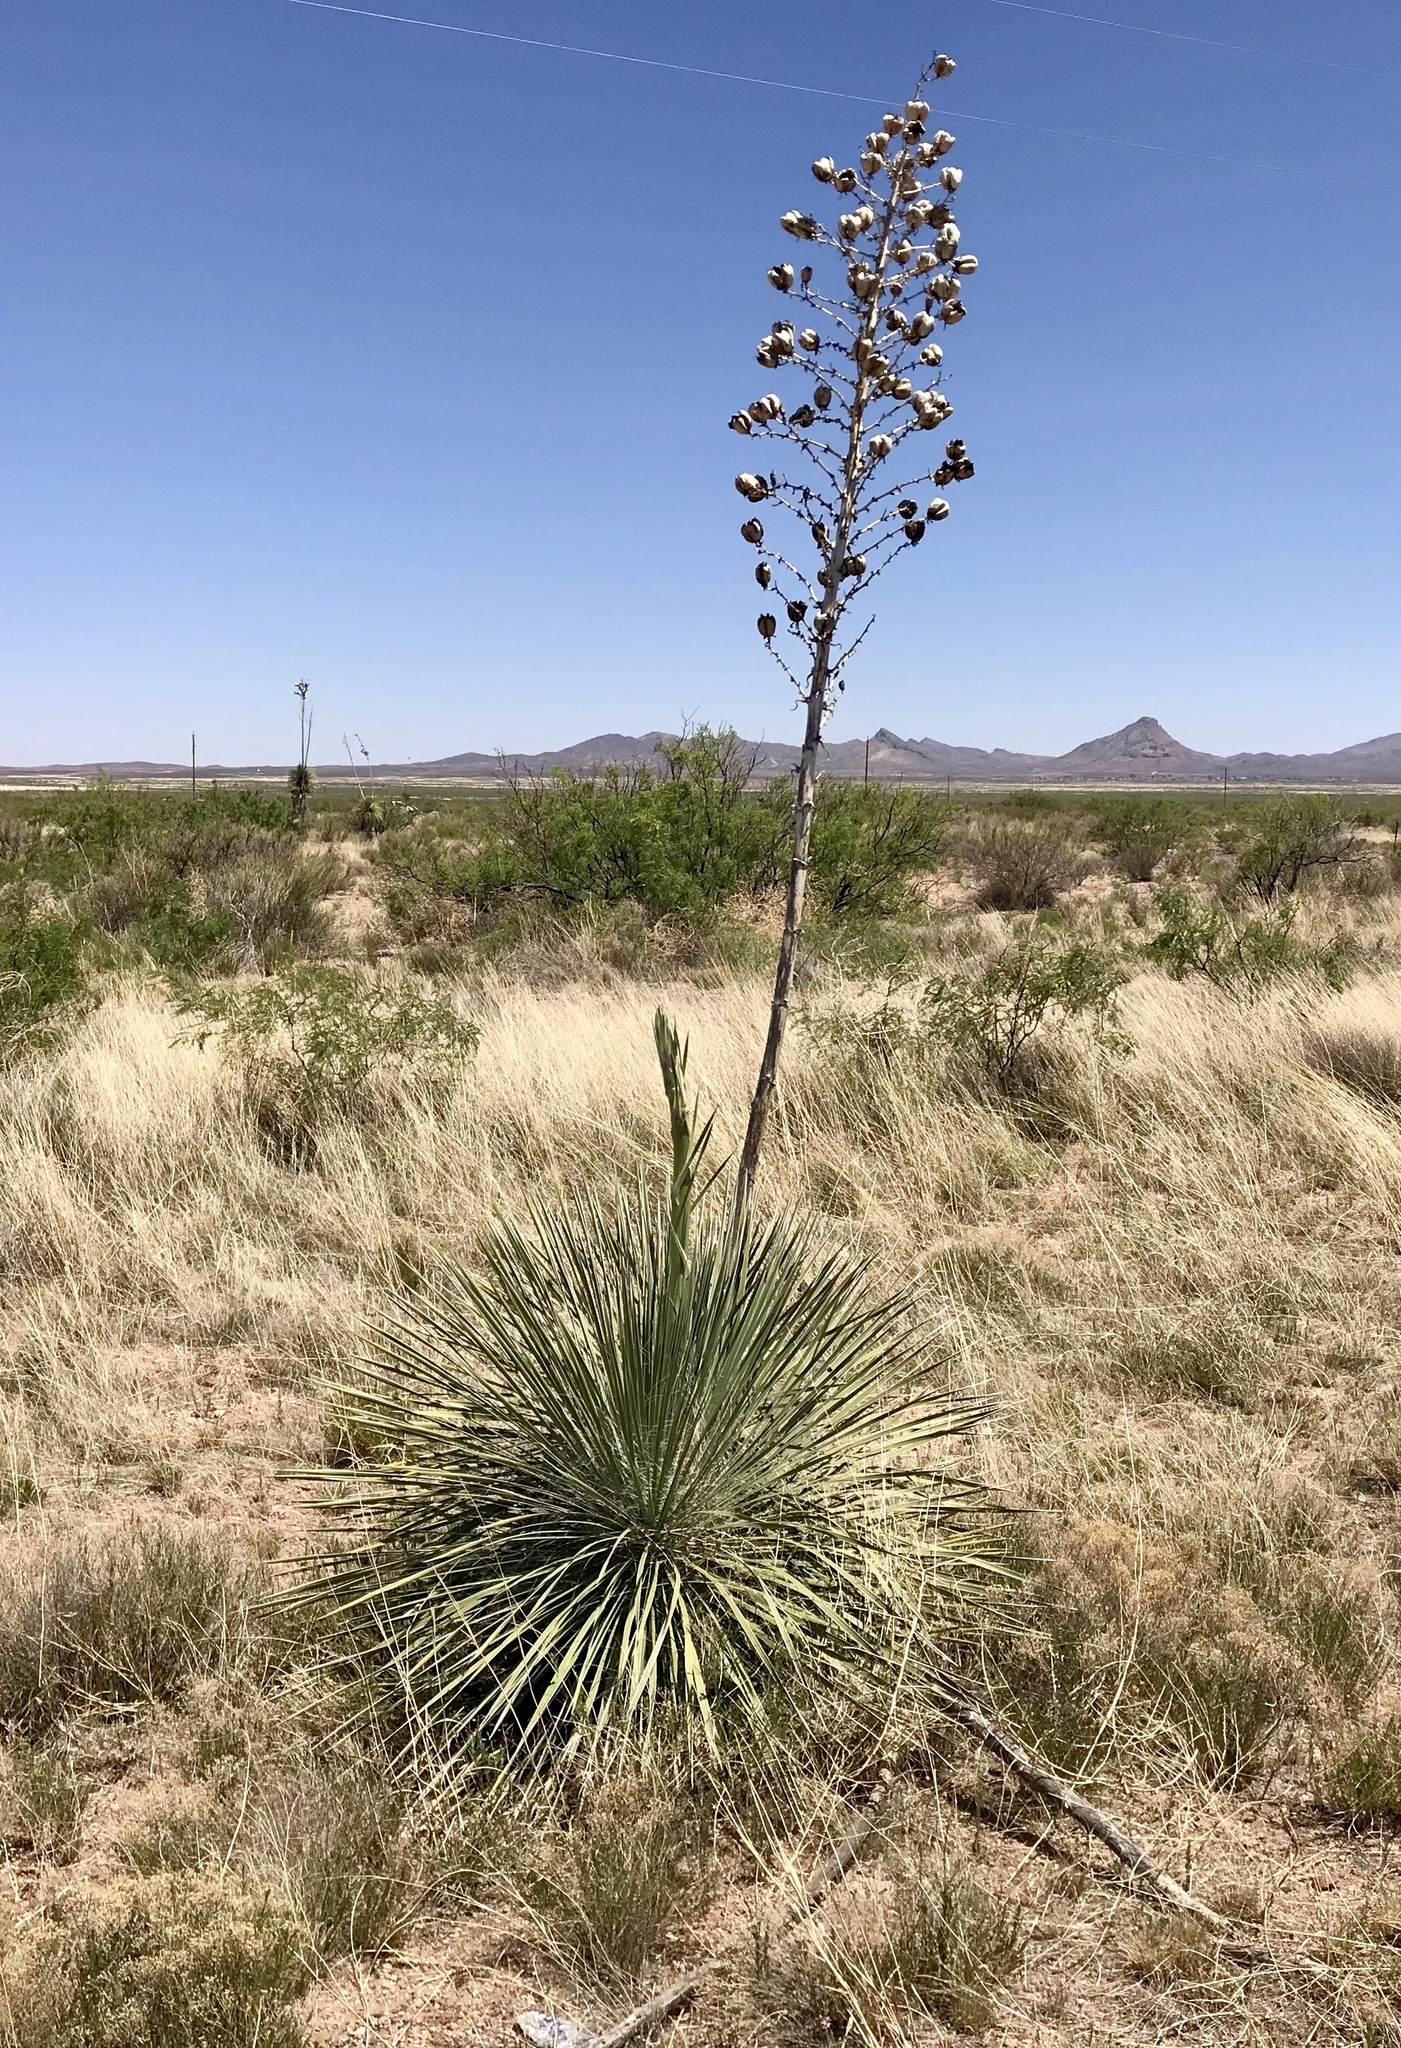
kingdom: Plantae
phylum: Tracheophyta
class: Liliopsida
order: Asparagales
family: Asparagaceae
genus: Yucca
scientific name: Yucca elata
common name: Palmella
